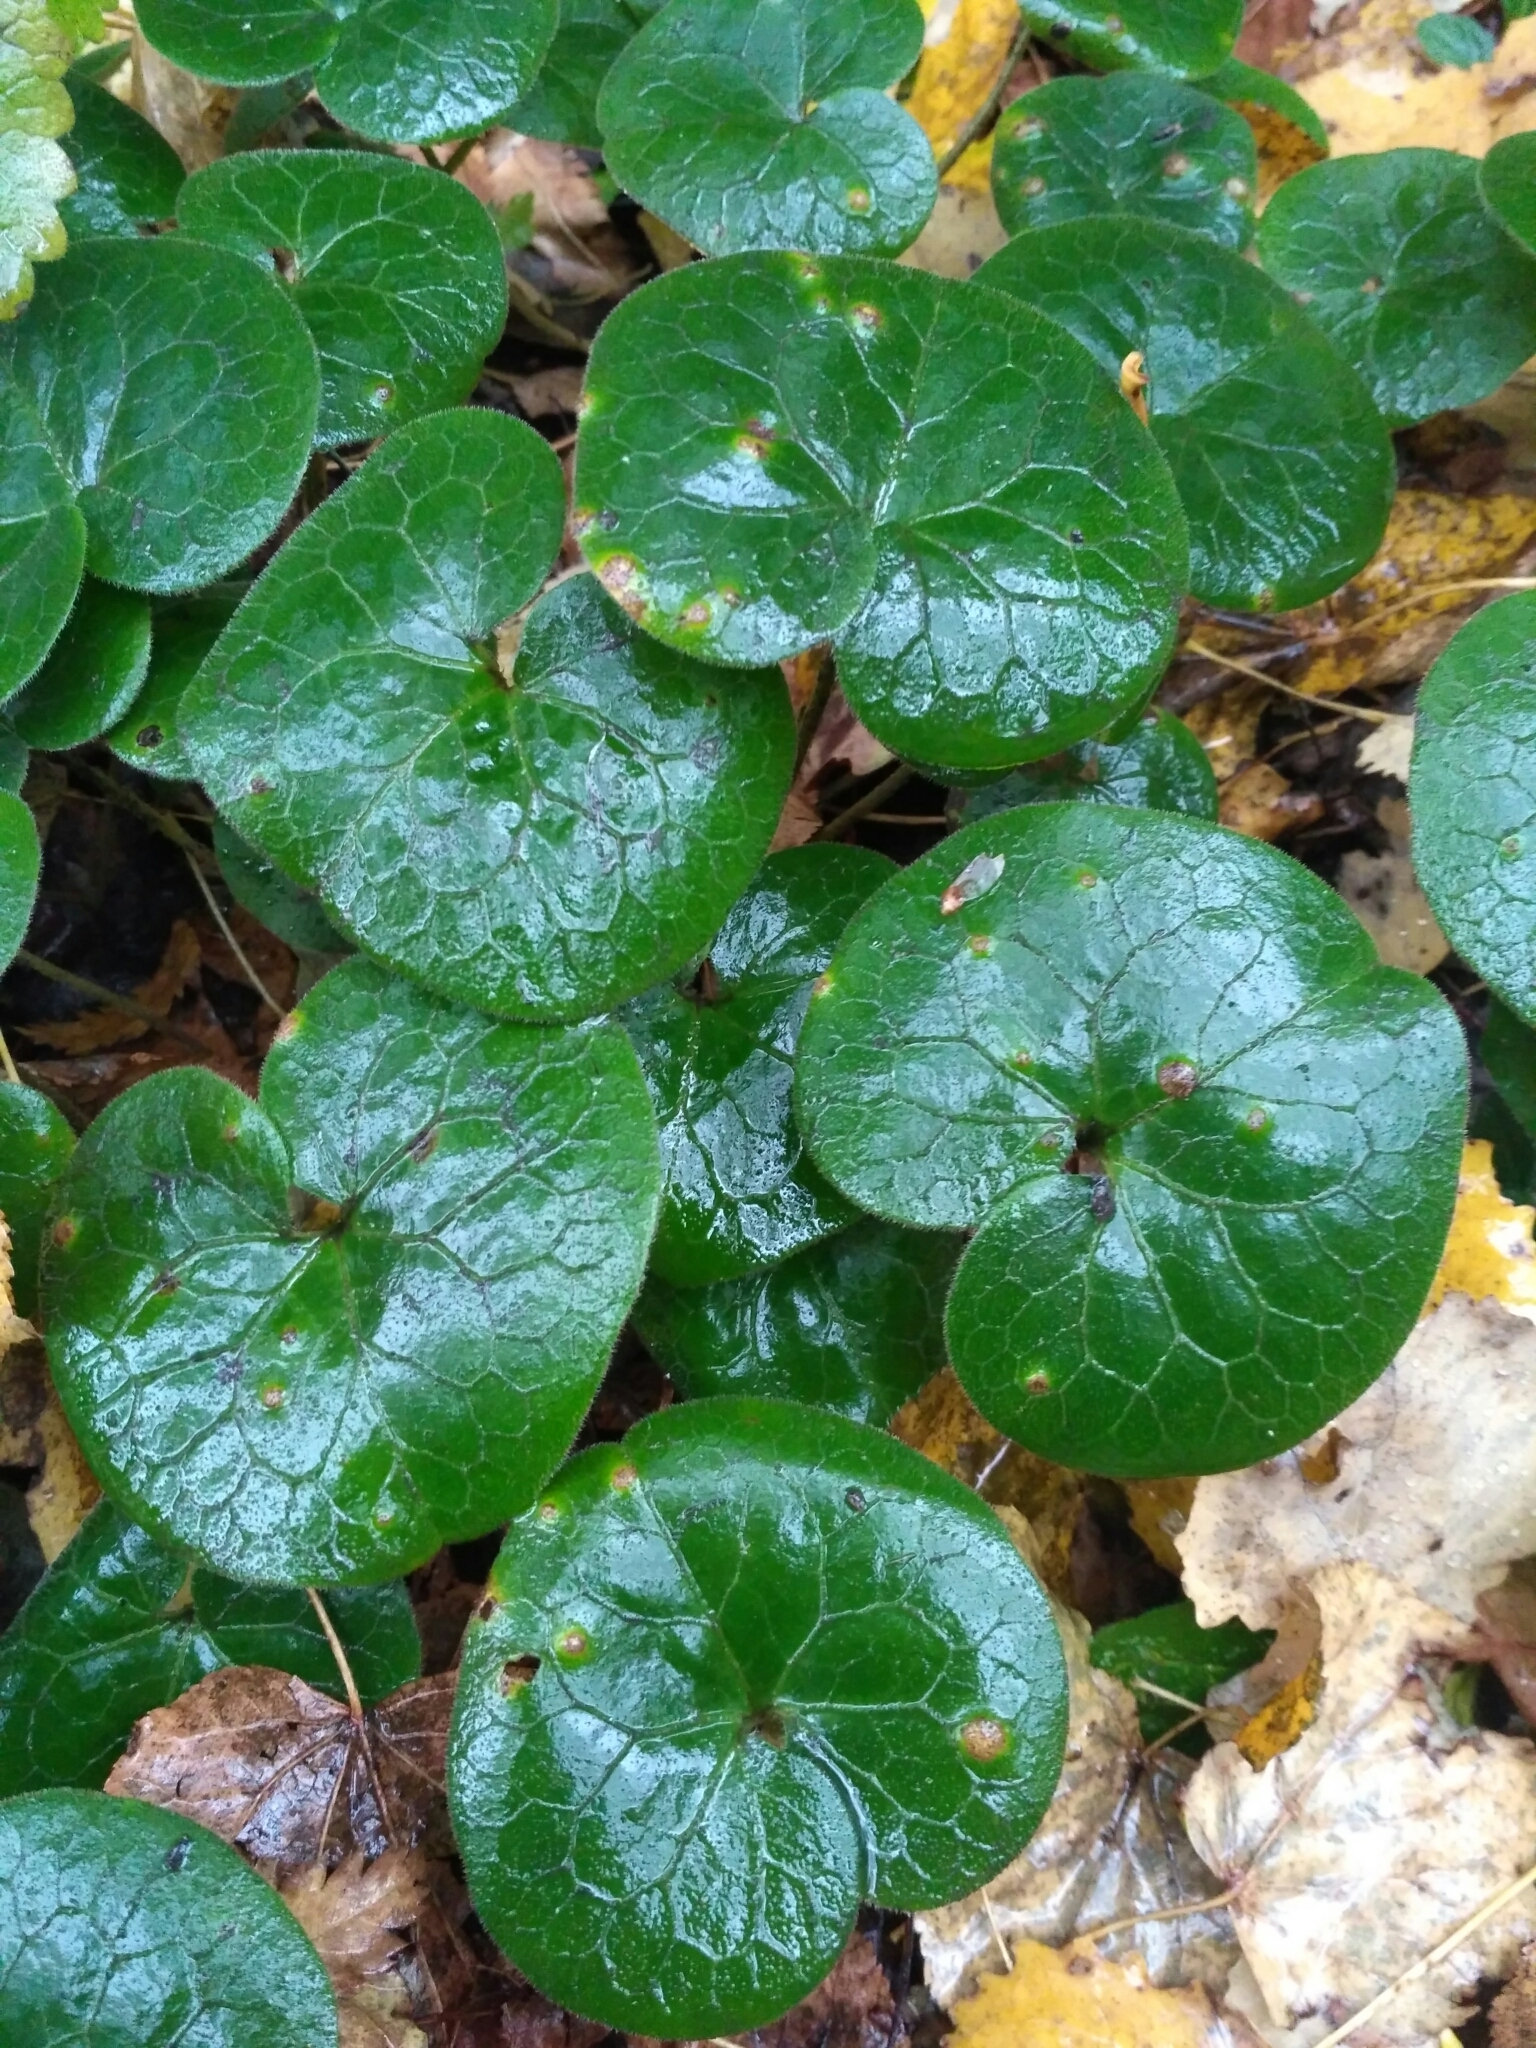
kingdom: Plantae
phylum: Tracheophyta
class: Magnoliopsida
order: Piperales
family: Aristolochiaceae
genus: Asarum
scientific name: Asarum europaeum
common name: Asarabacca
